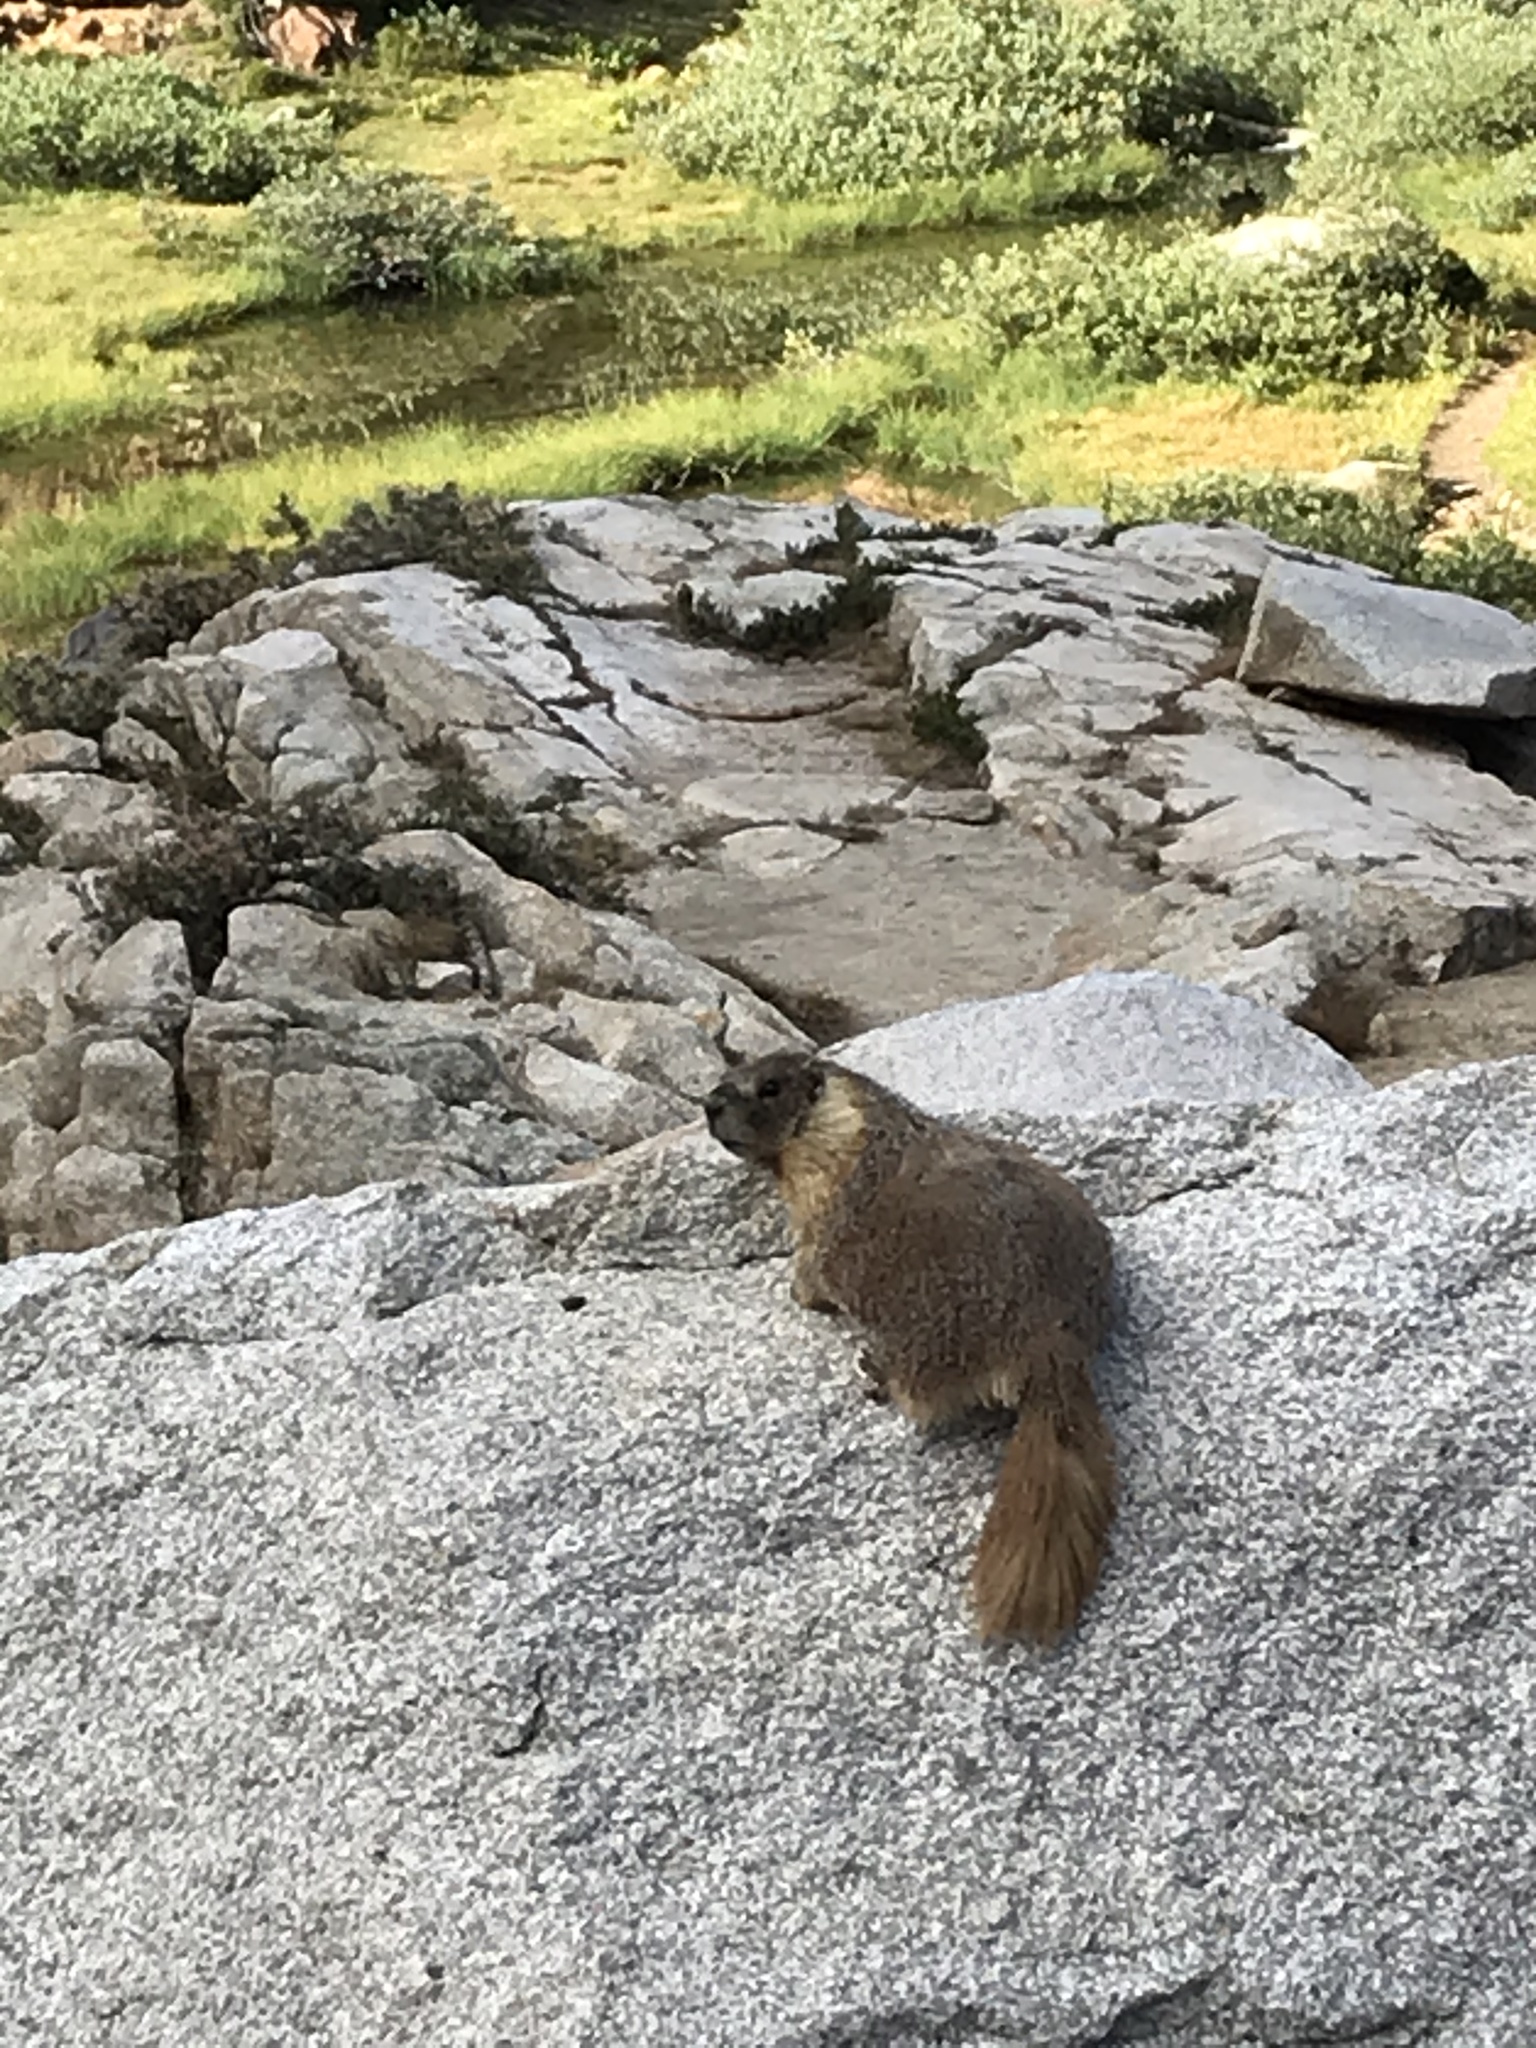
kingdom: Animalia
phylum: Chordata
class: Mammalia
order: Rodentia
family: Sciuridae
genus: Marmota
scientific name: Marmota flaviventris
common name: Yellow-bellied marmot
